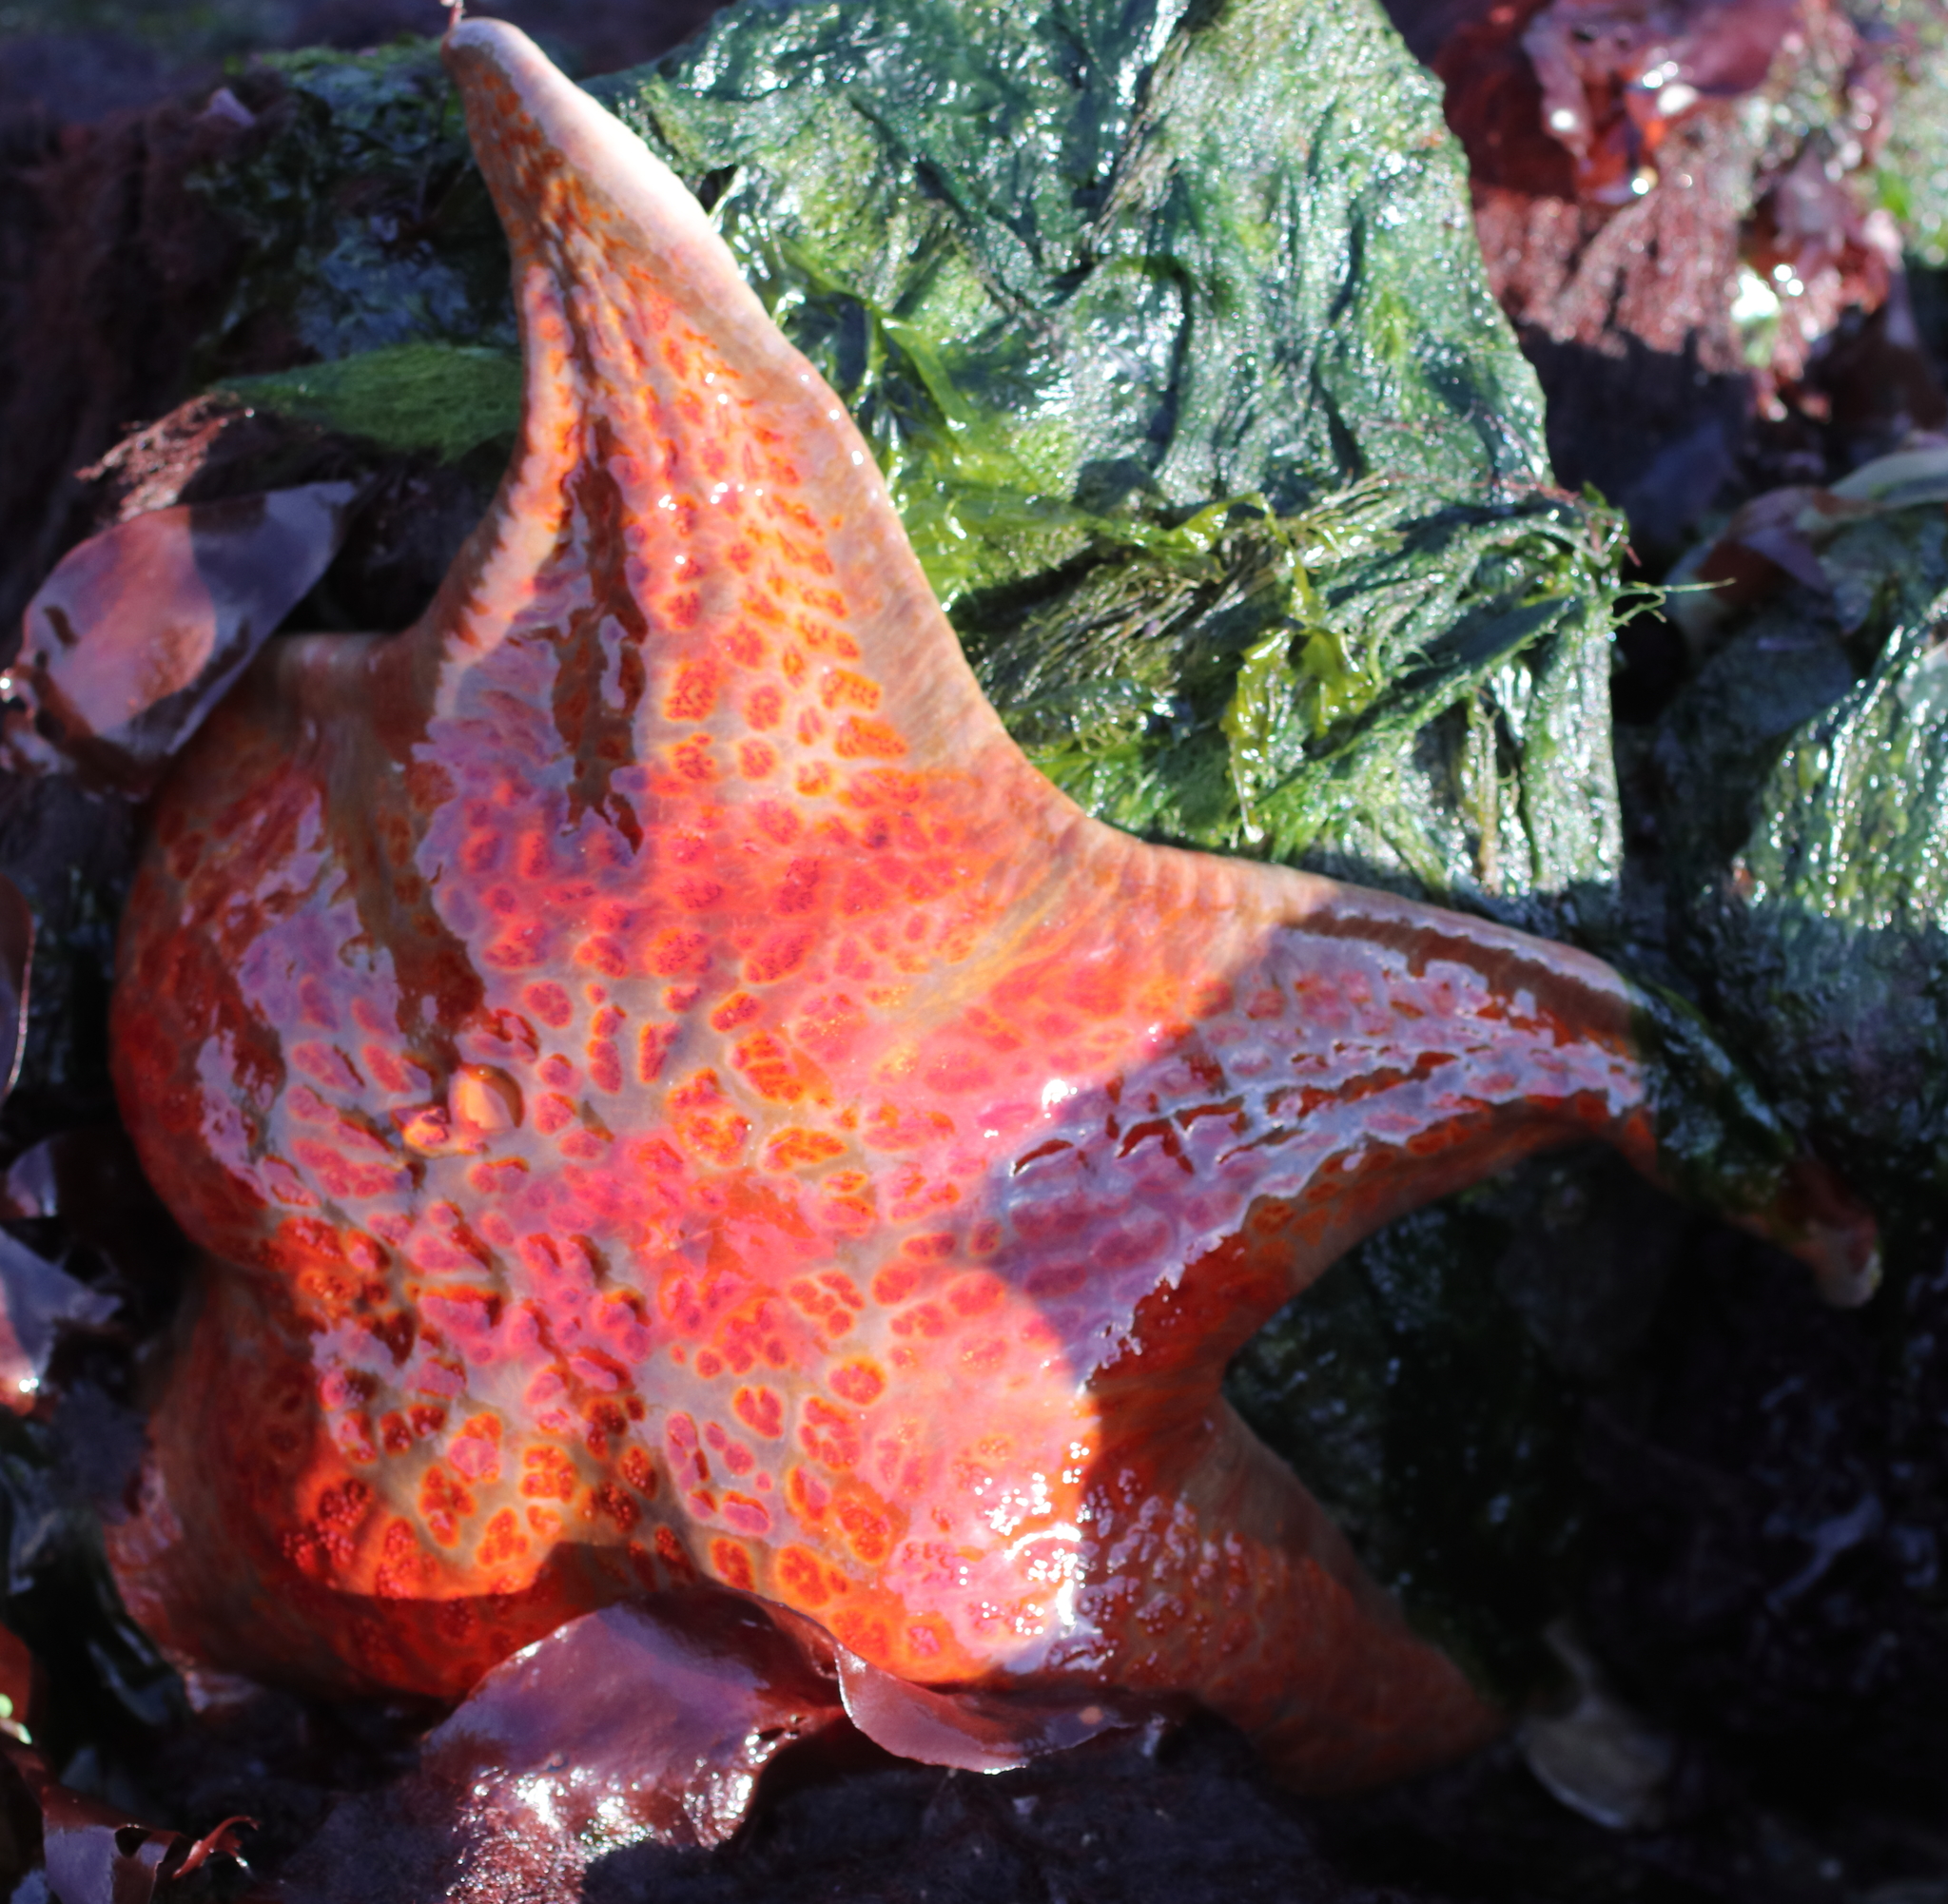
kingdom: Animalia
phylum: Echinodermata
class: Asteroidea
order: Valvatida
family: Asteropseidae
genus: Dermasterias
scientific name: Dermasterias imbricata
